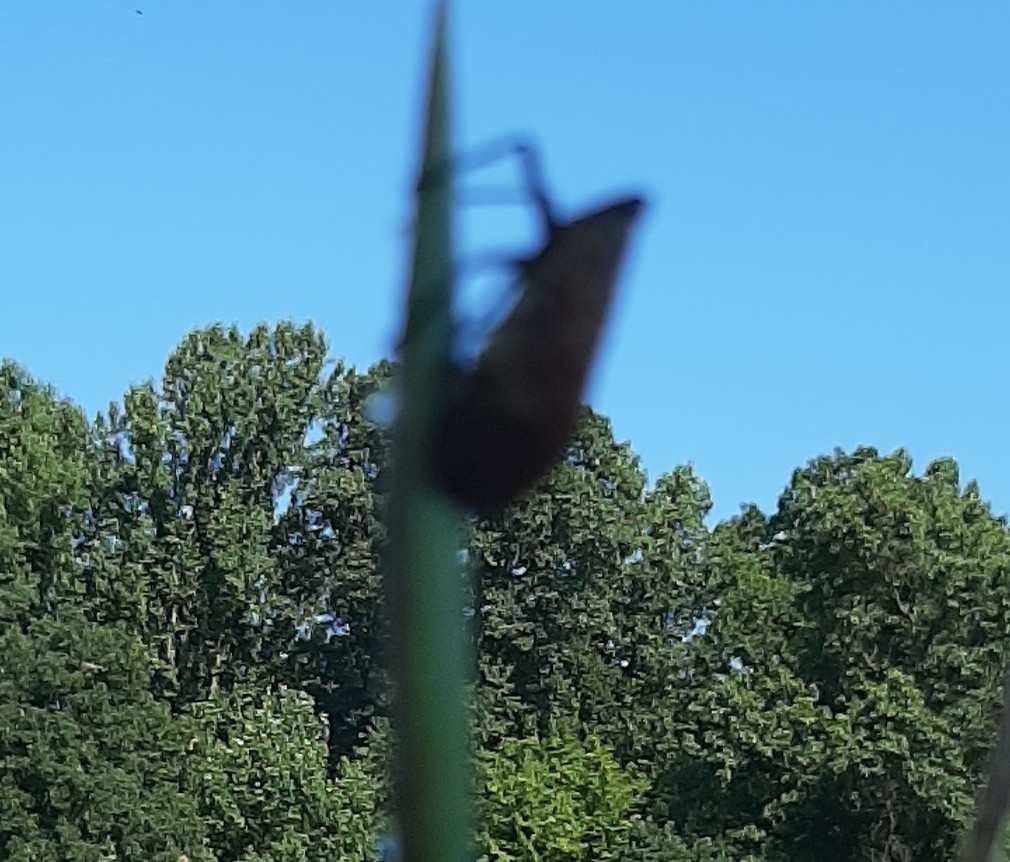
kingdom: Animalia
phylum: Arthropoda
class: Insecta
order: Hemiptera
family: Fulgoridae
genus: Lycorma
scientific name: Lycorma delicatula
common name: Spotted lanternfly
